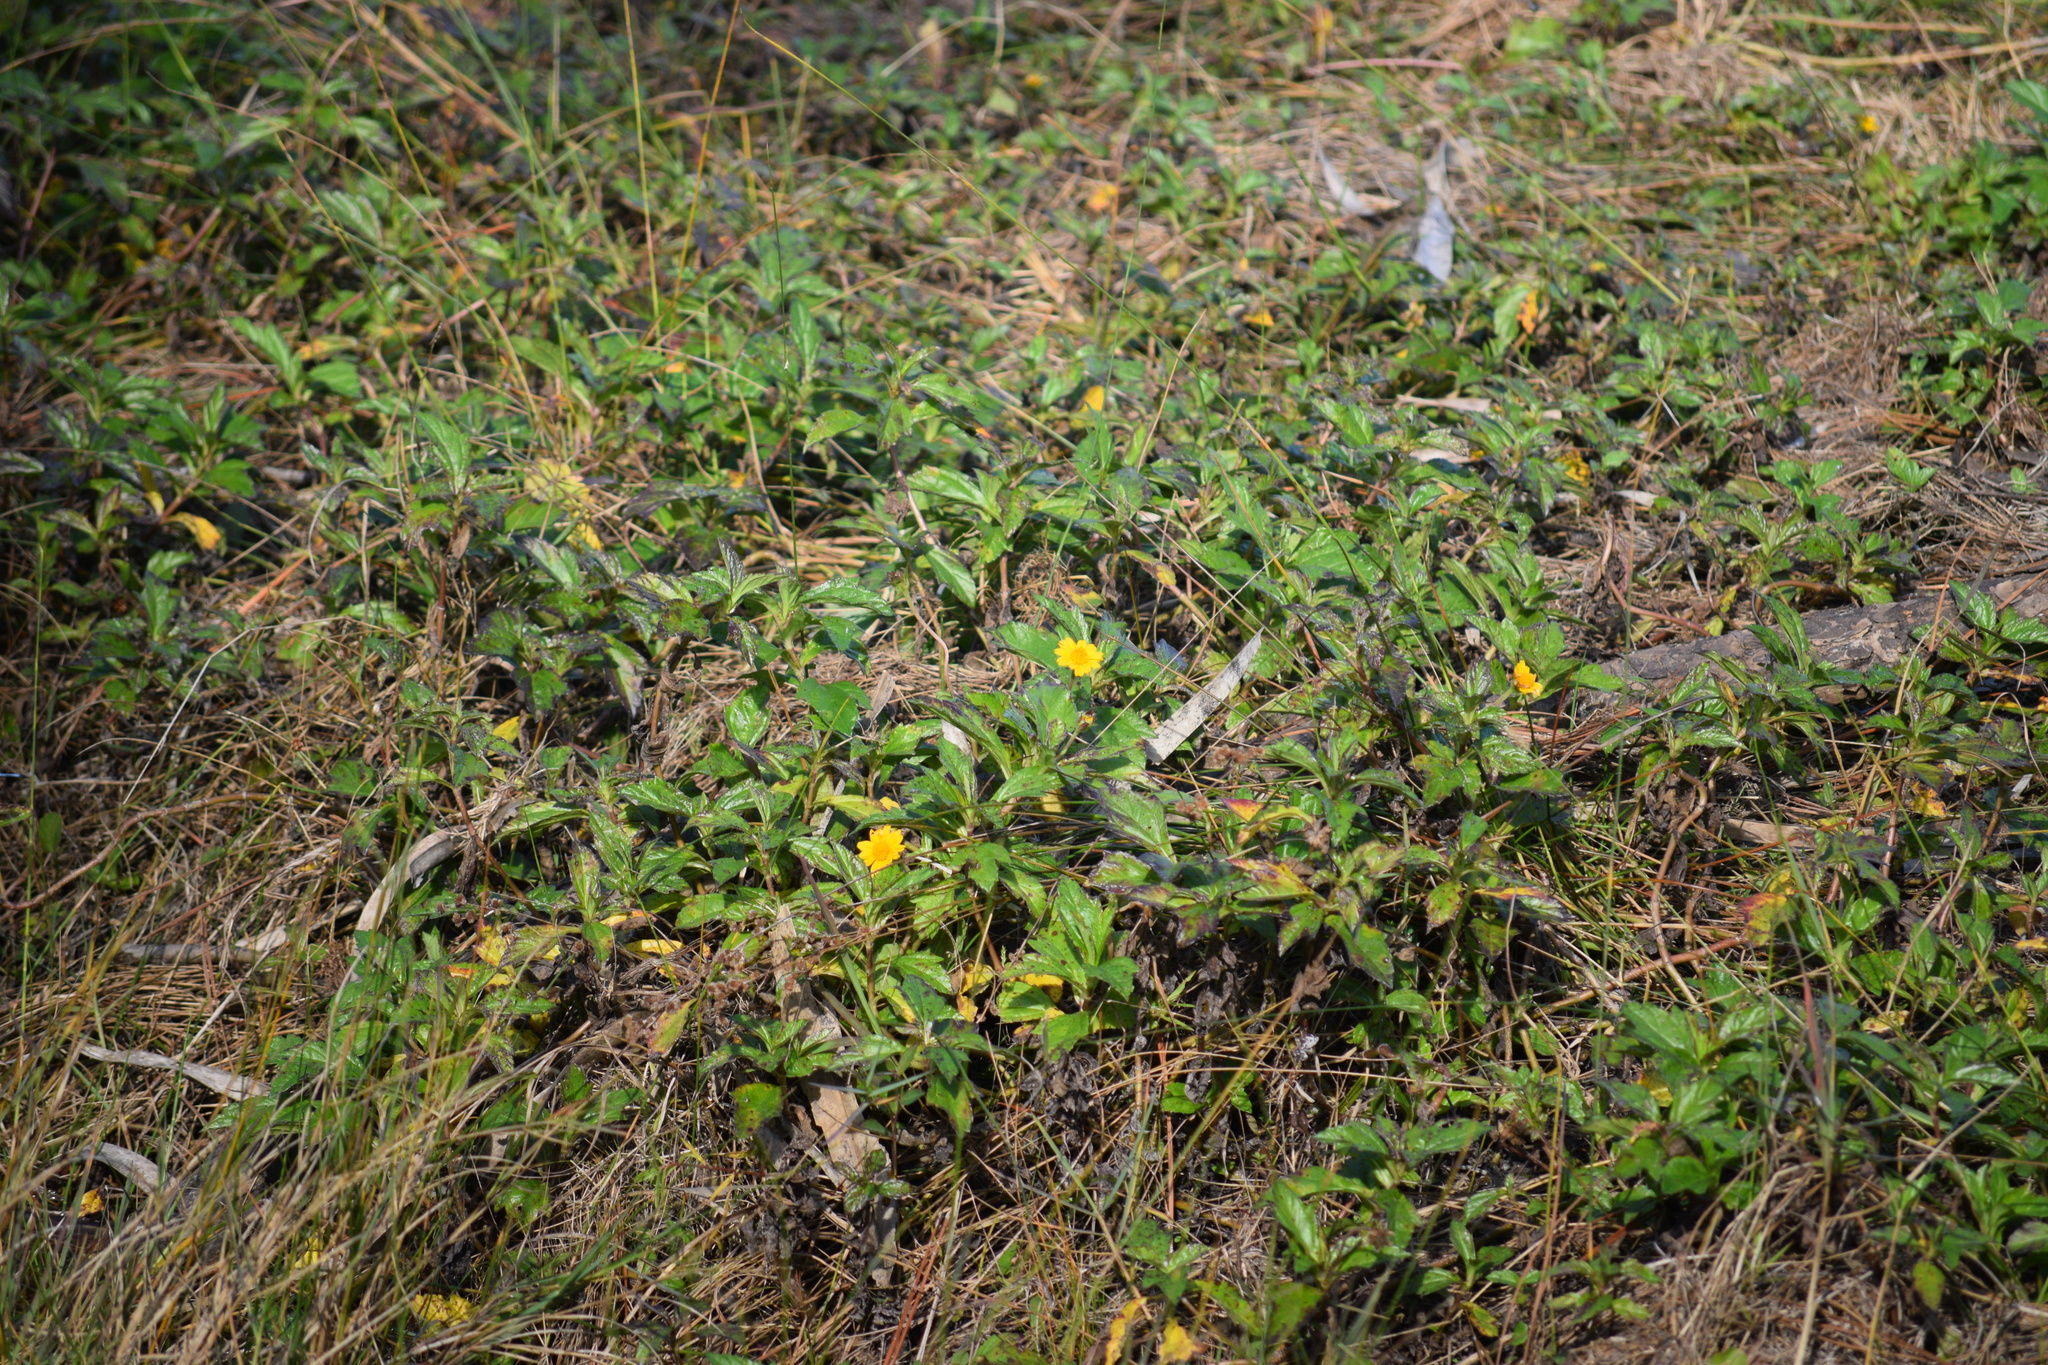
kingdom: Plantae
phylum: Tracheophyta
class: Magnoliopsida
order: Asterales
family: Asteraceae
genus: Sphagneticola
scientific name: Sphagneticola trilobata
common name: Bay biscayne creeping-oxeye
